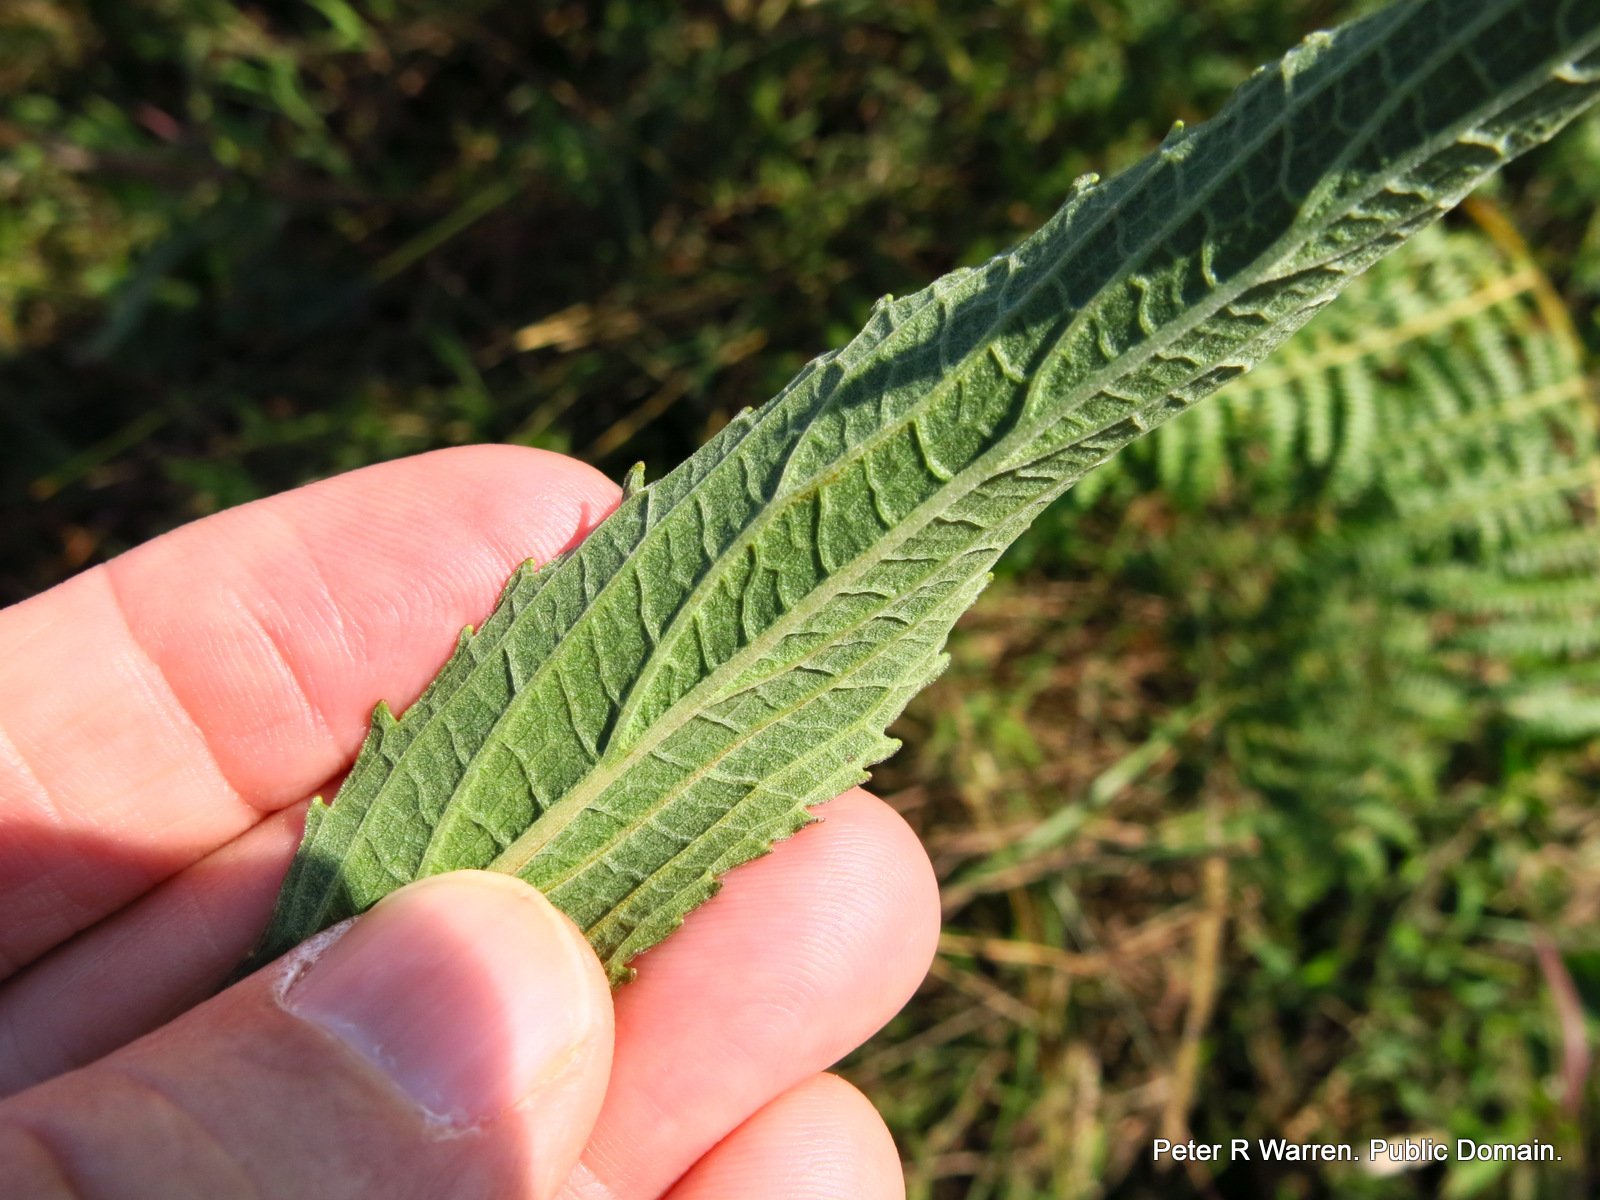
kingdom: Plantae
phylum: Tracheophyta
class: Magnoliopsida
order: Lamiales
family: Lamiaceae
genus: Coleus
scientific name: Coleus kirkii
